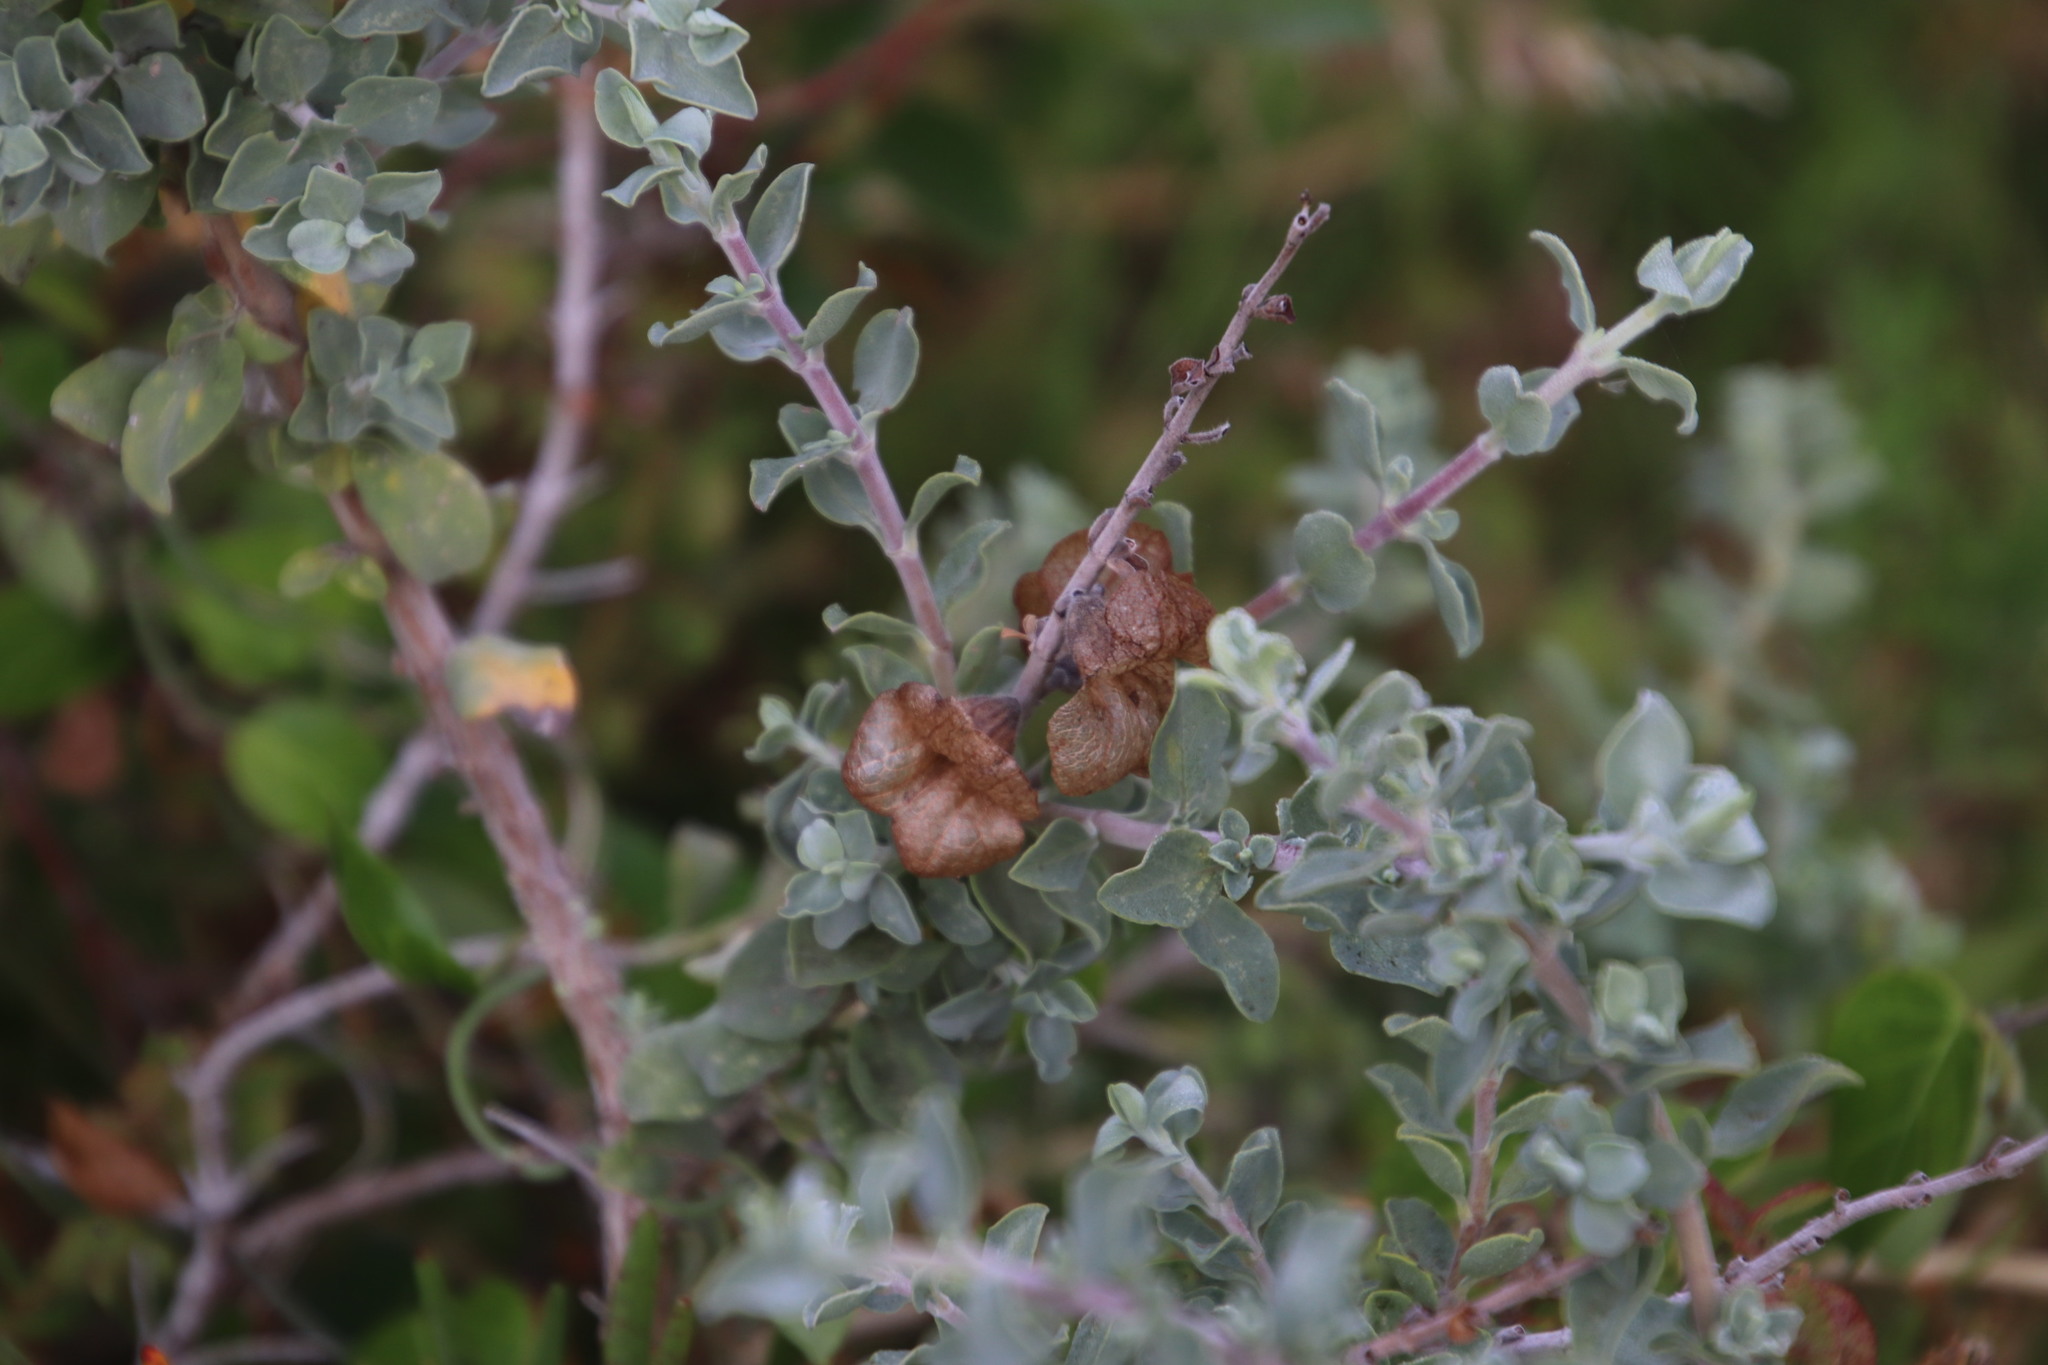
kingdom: Plantae
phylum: Tracheophyta
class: Magnoliopsida
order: Lamiales
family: Lamiaceae
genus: Salvia
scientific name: Salvia aurea
